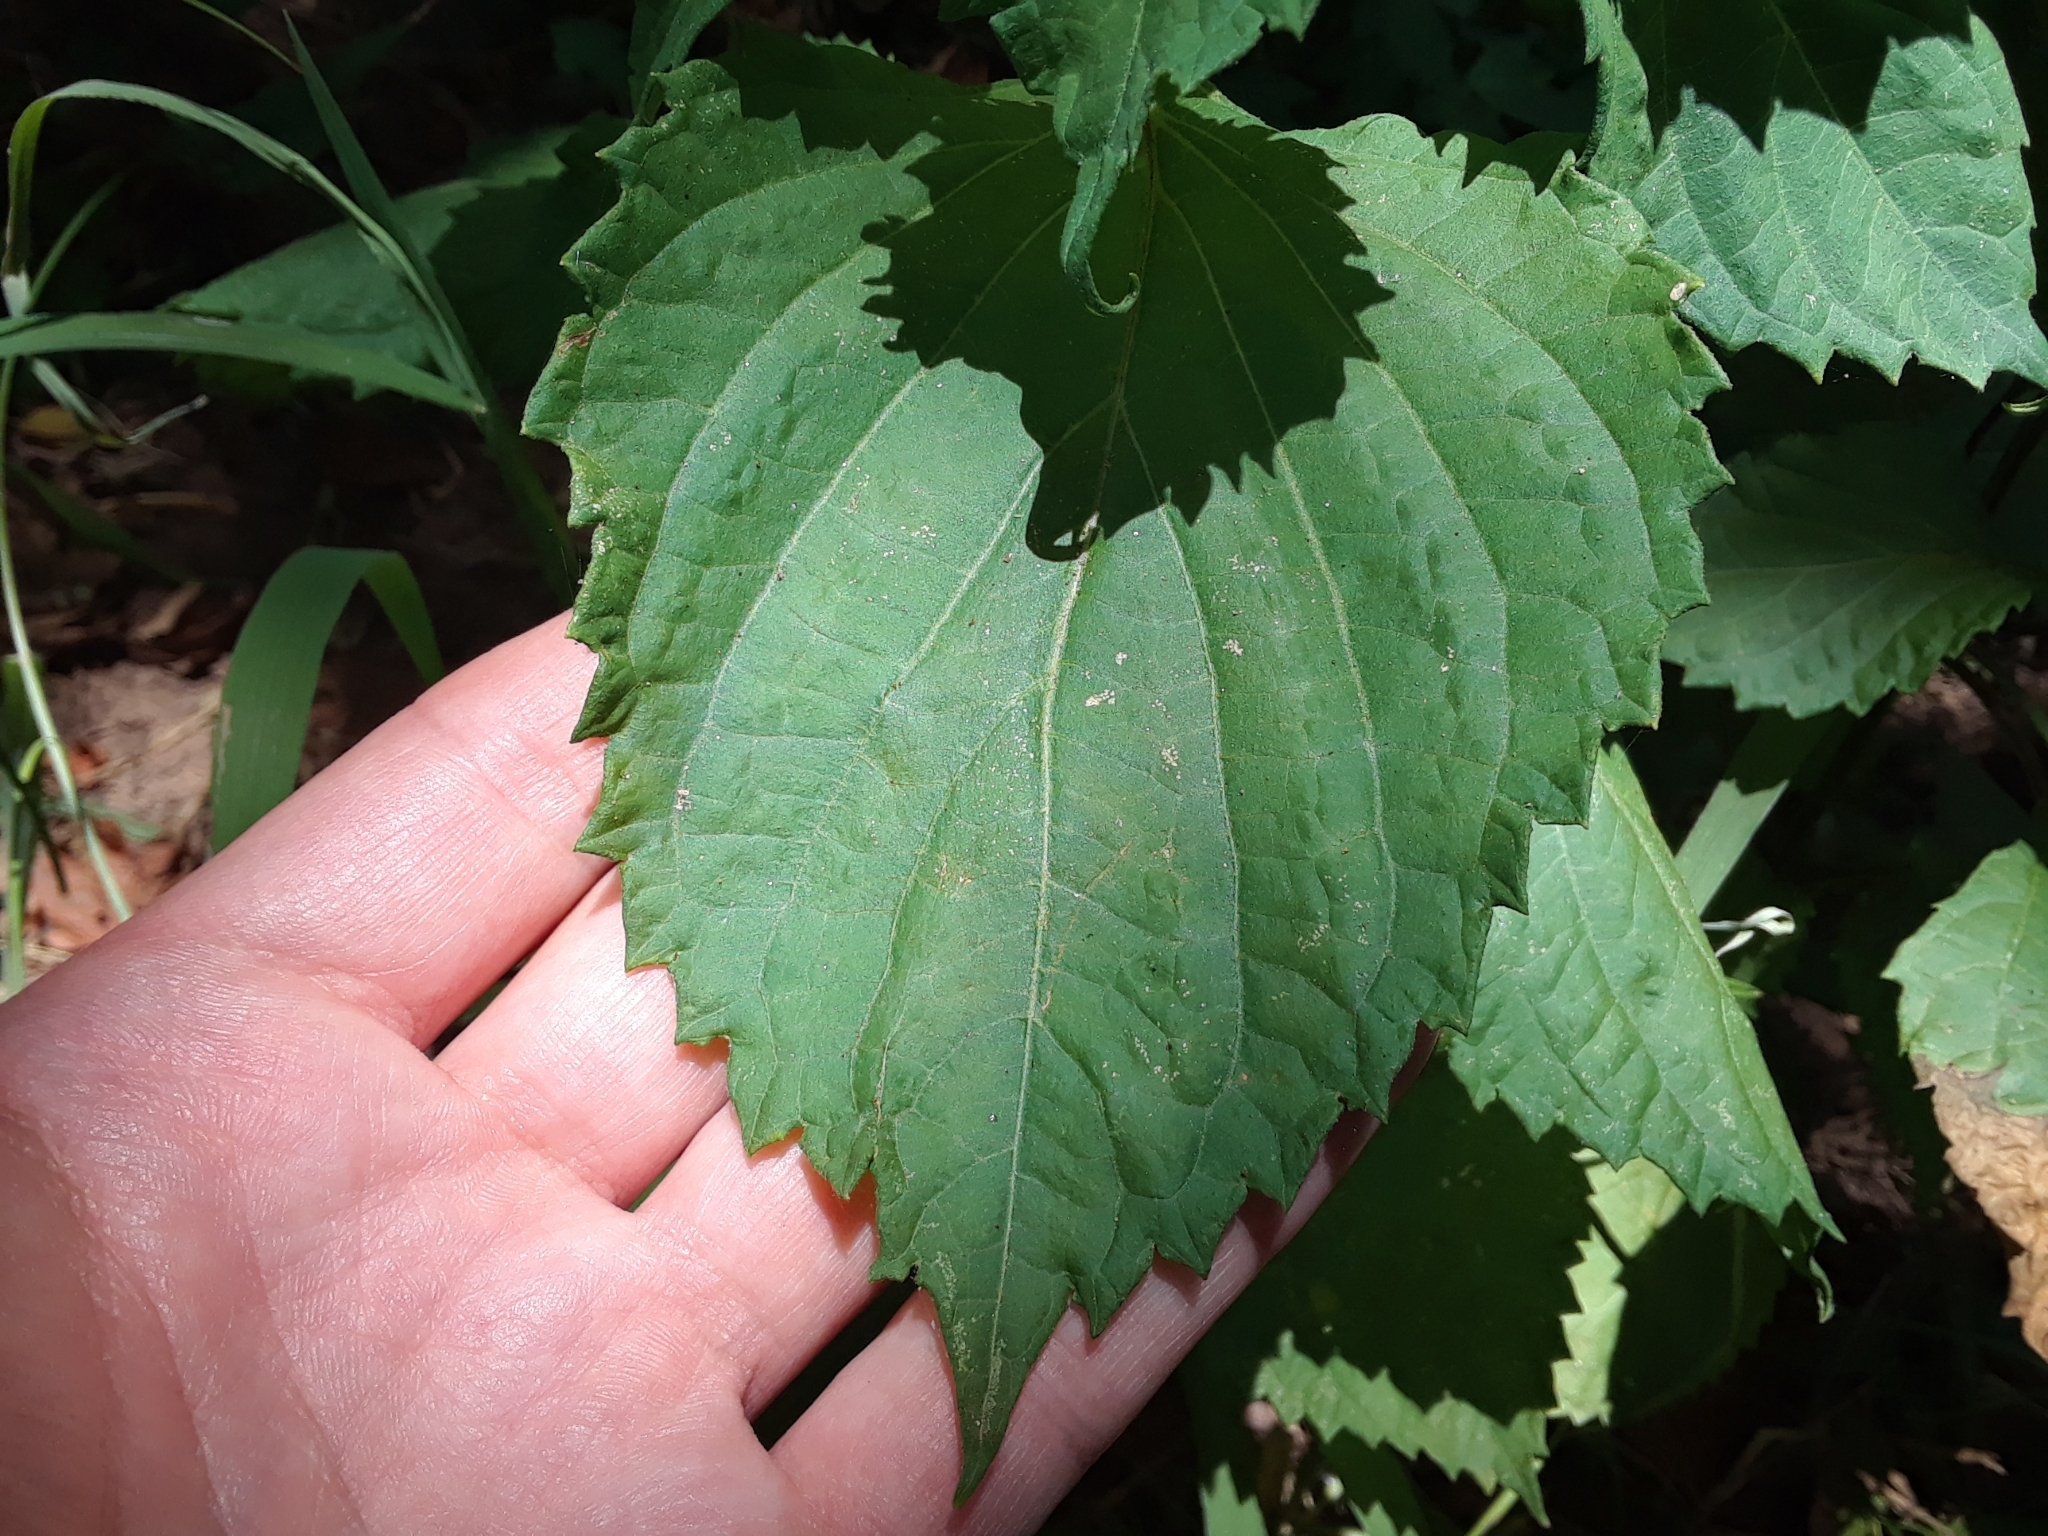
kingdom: Plantae
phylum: Tracheophyta
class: Magnoliopsida
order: Lamiales
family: Lamiaceae
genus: Perilla
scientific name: Perilla frutescens
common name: Perilla
